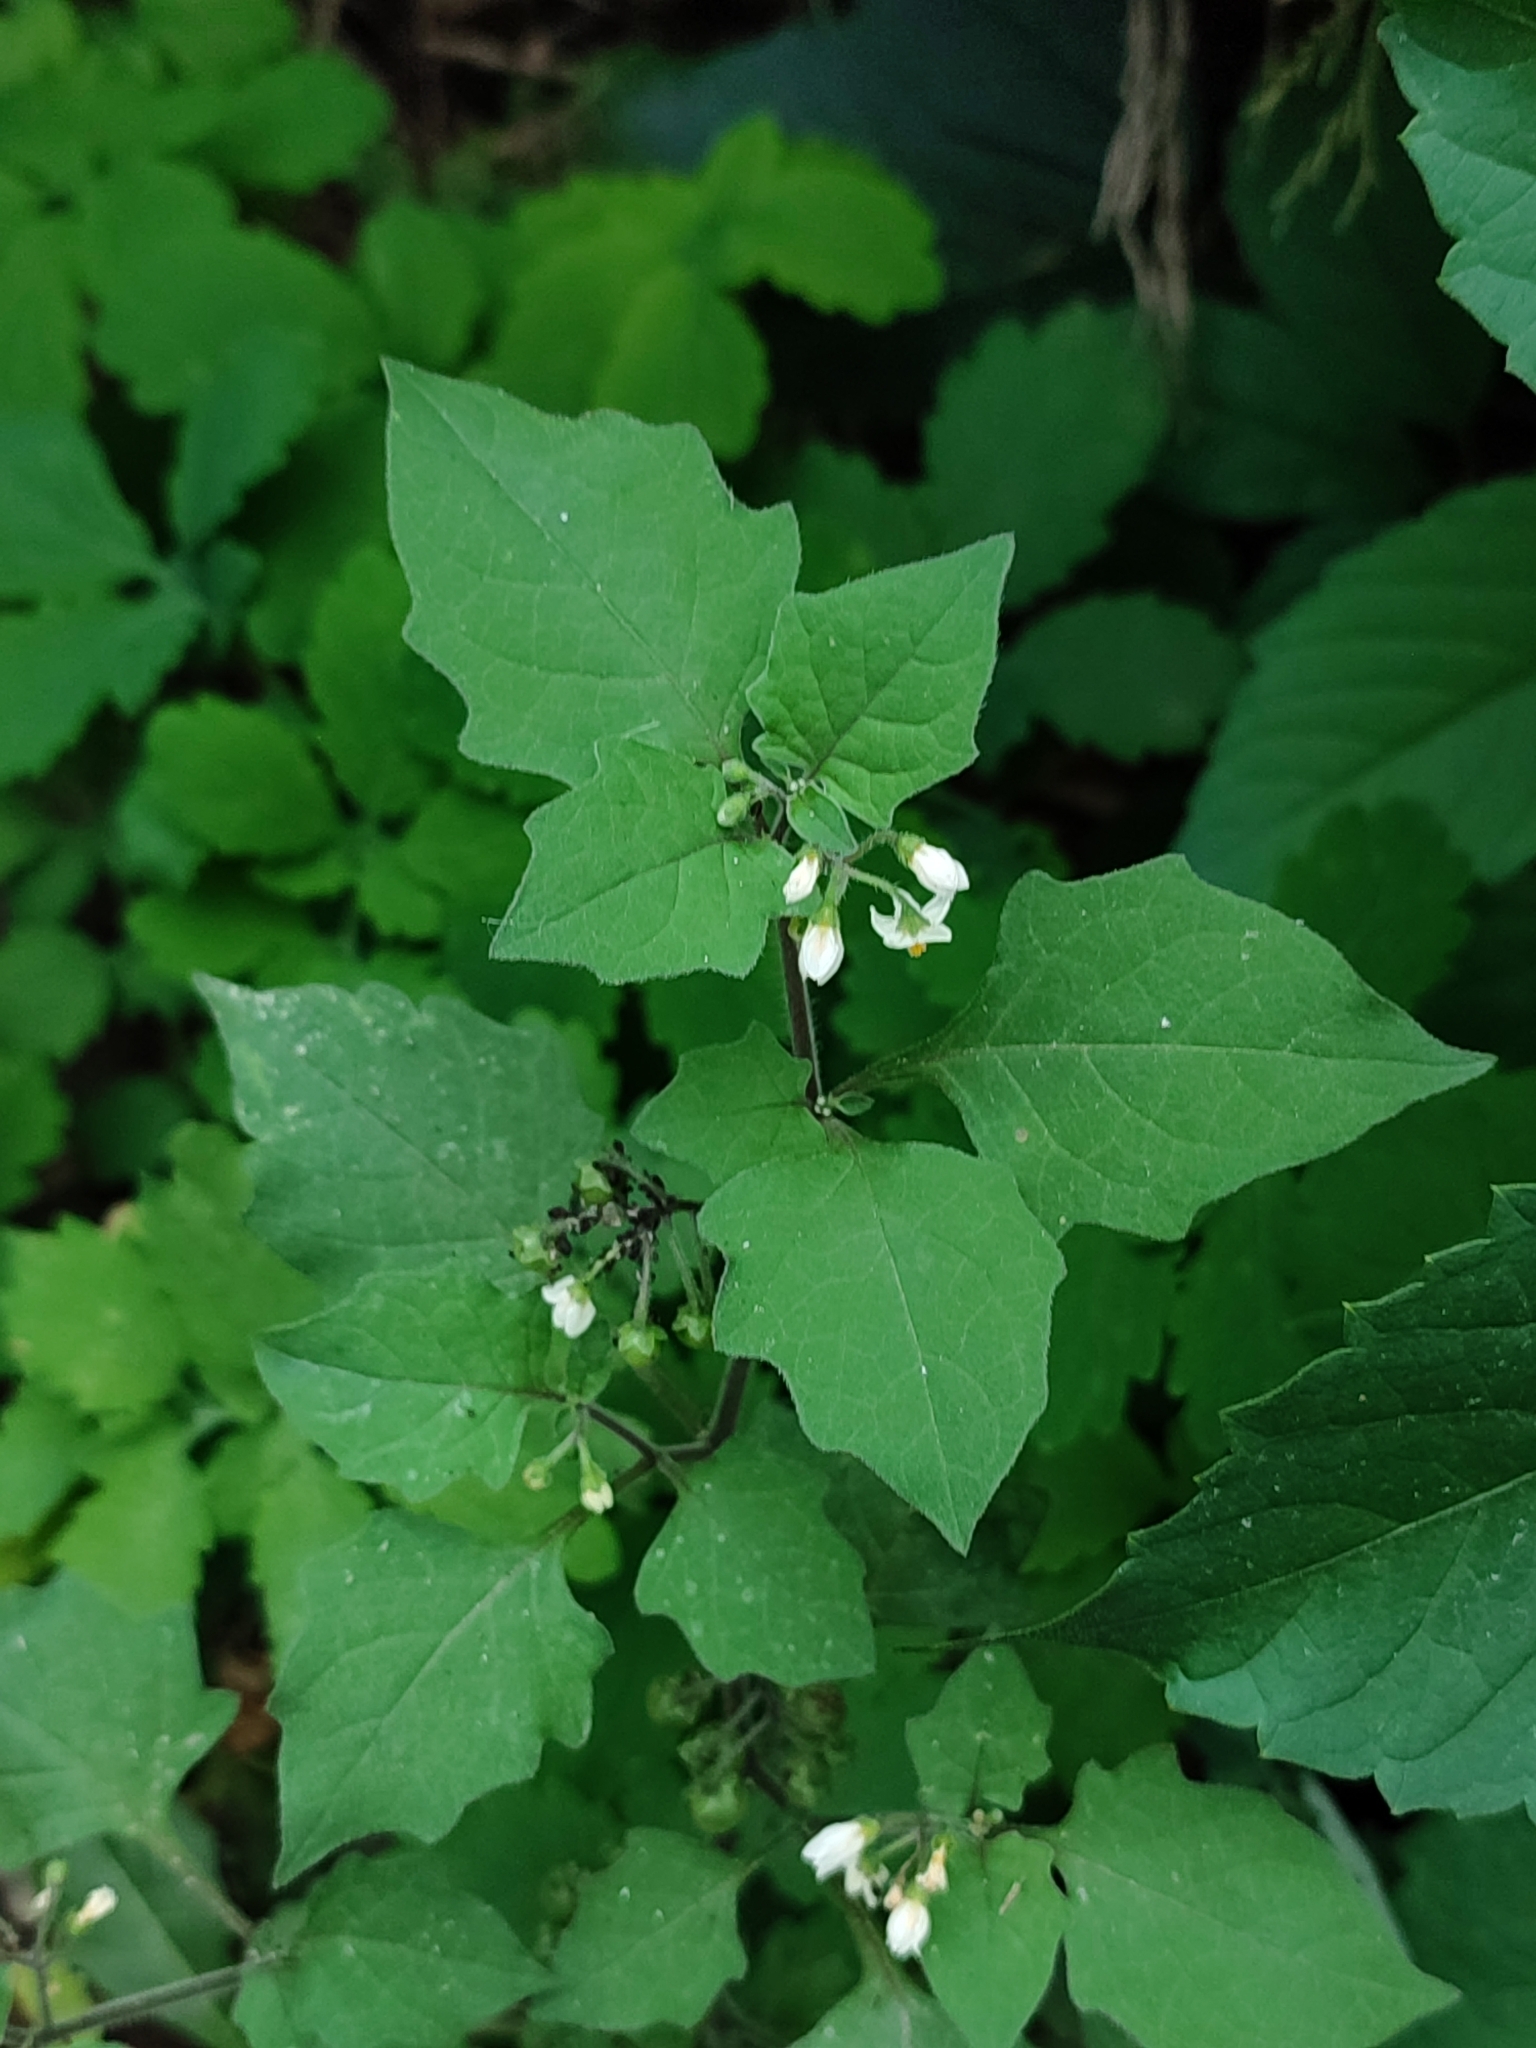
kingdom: Plantae
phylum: Tracheophyta
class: Magnoliopsida
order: Solanales
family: Solanaceae
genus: Solanum
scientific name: Solanum nigrum
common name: Black nightshade
